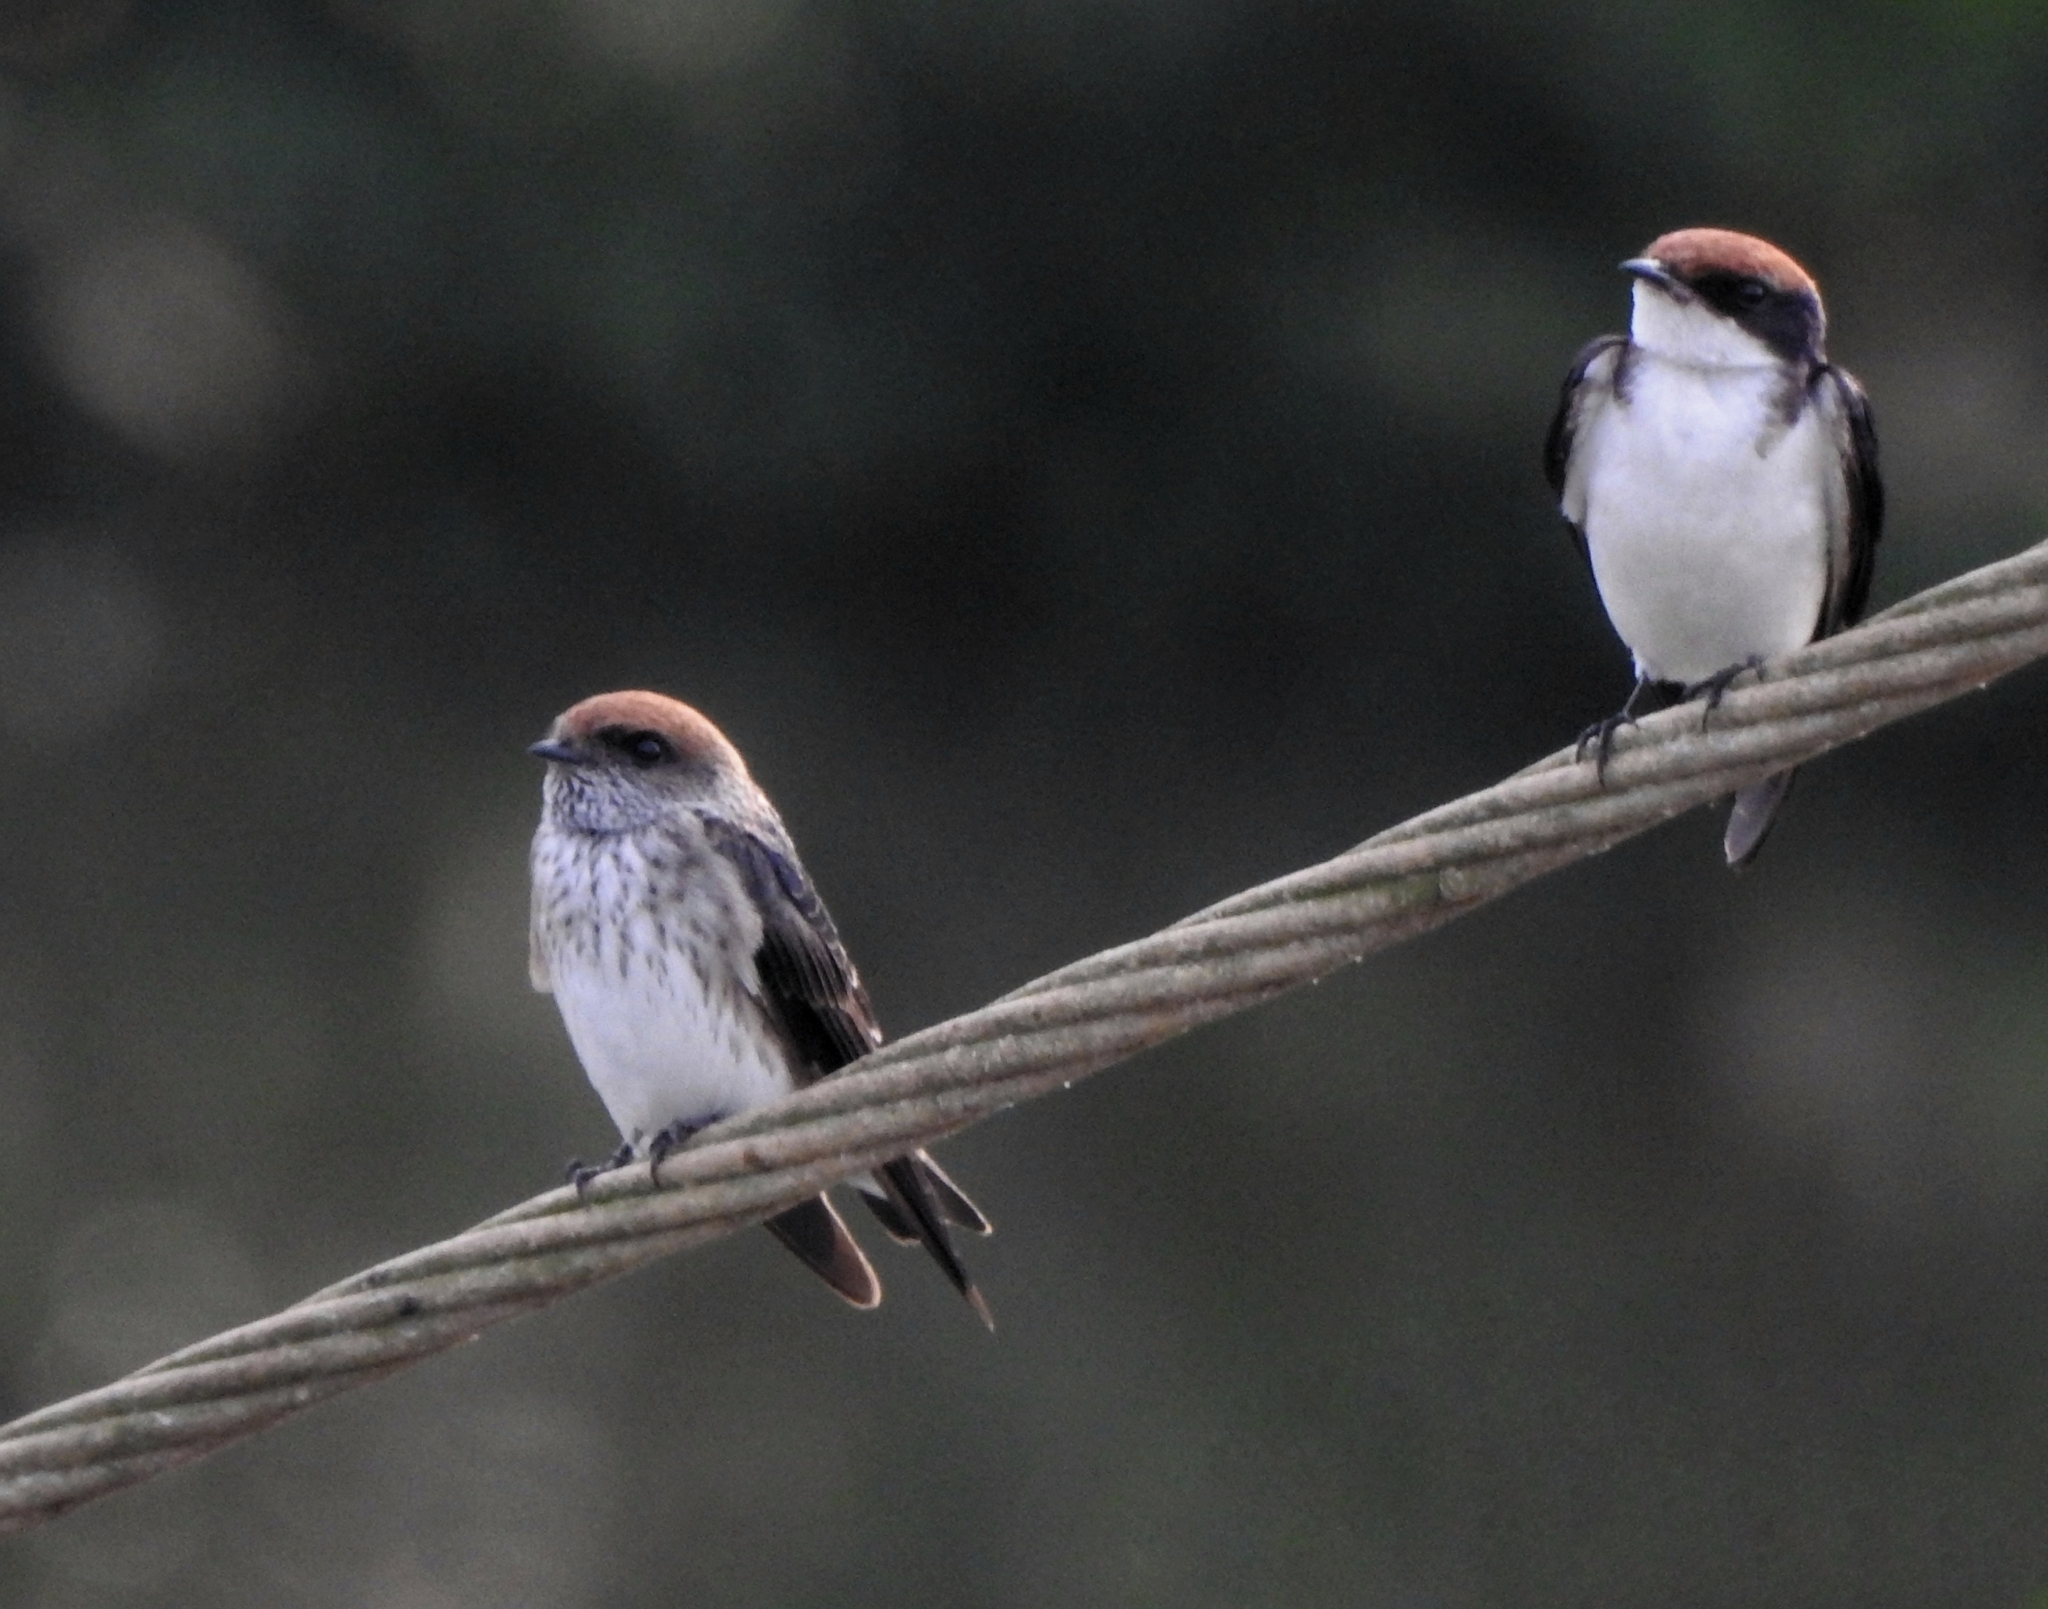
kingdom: Animalia
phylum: Chordata
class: Aves
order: Passeriformes
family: Hirundinidae
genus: Petrochelidon
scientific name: Petrochelidon fluvicola
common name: Streak-throated swallow
